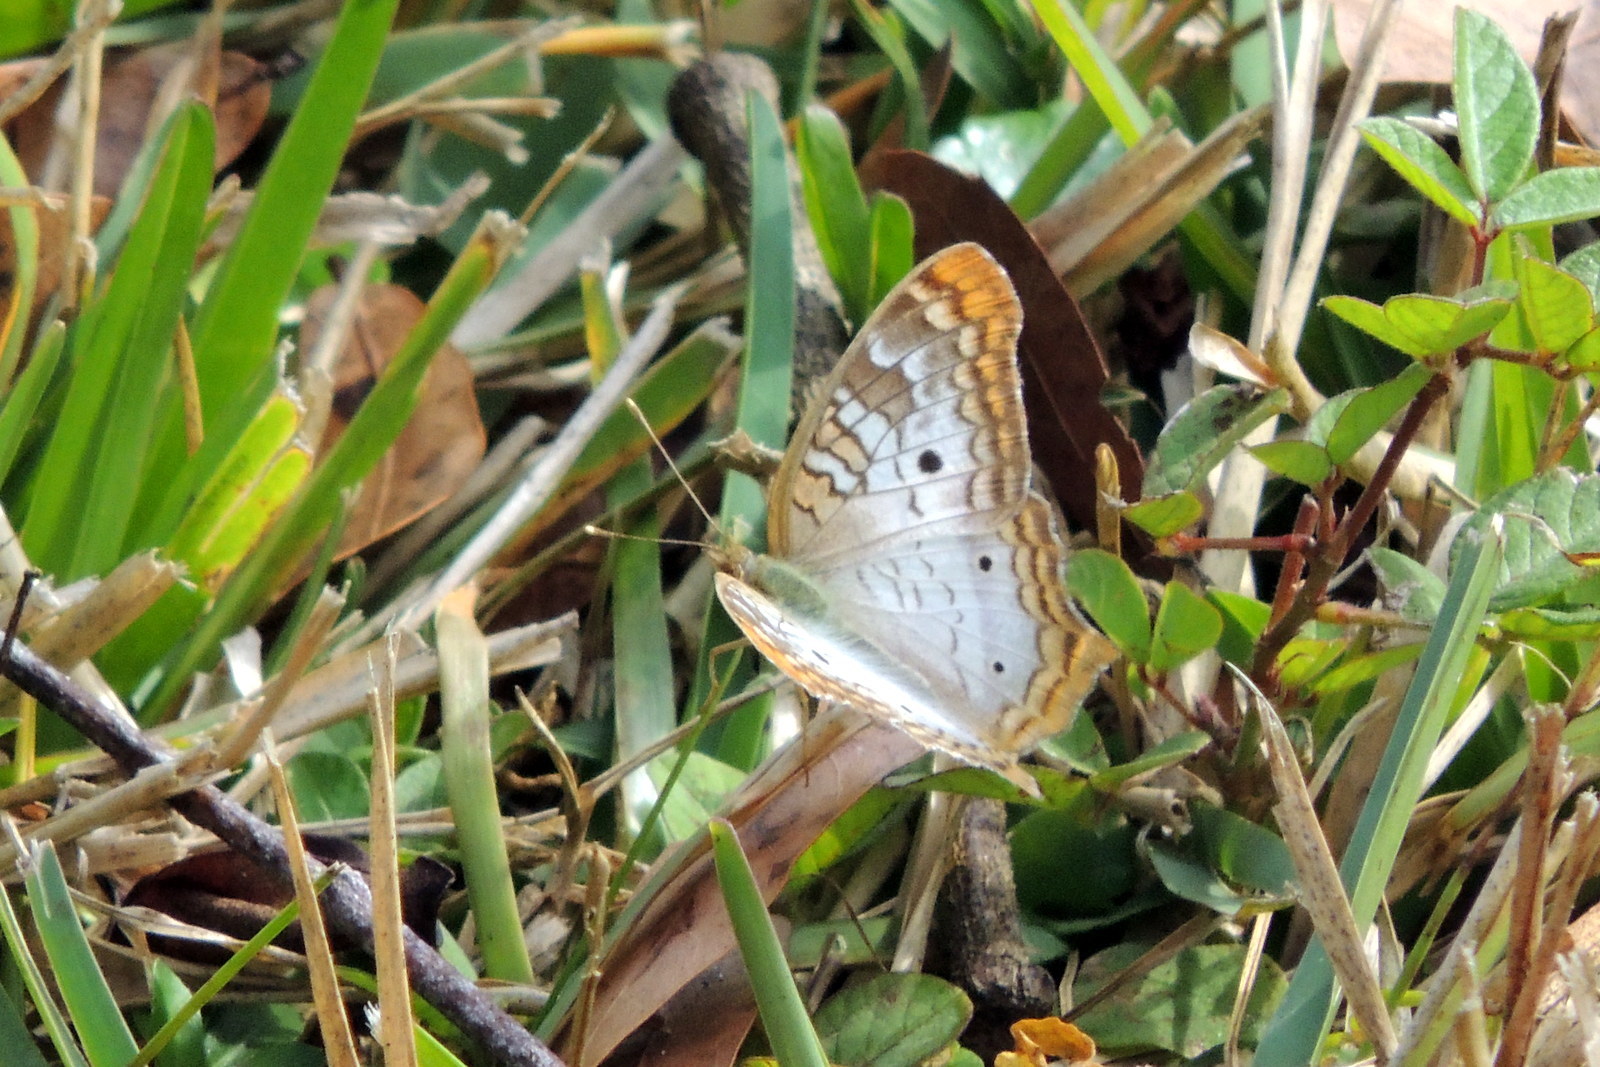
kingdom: Animalia
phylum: Arthropoda
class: Insecta
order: Lepidoptera
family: Nymphalidae
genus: Anartia
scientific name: Anartia jatrophae
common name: White peacock
